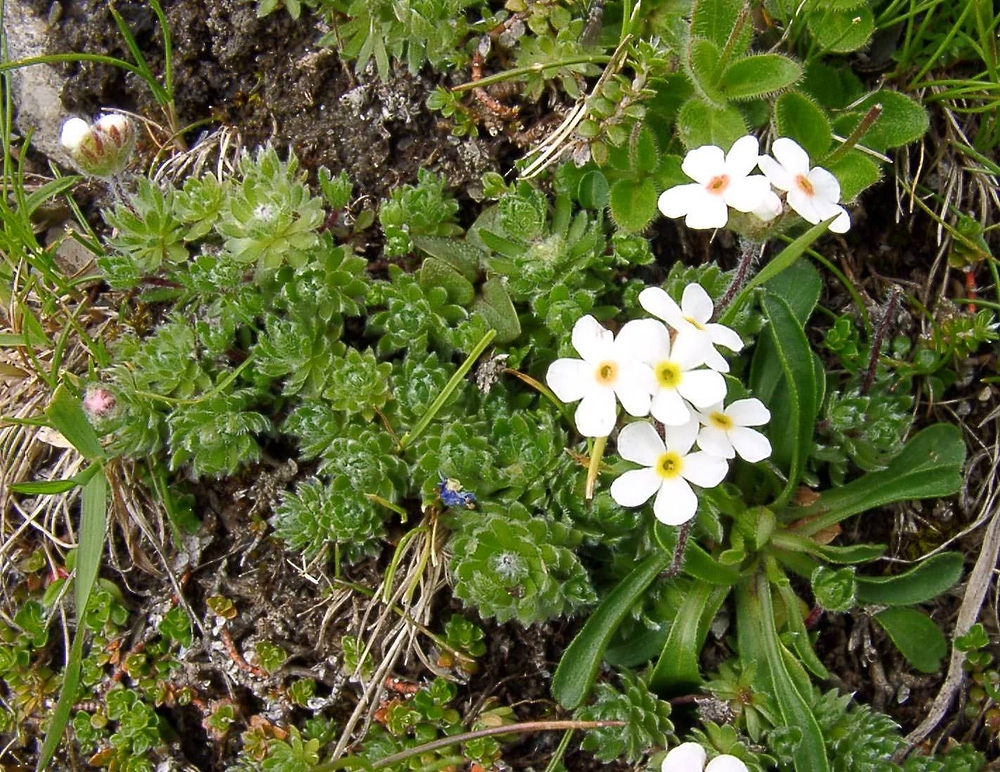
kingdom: Plantae
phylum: Tracheophyta
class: Magnoliopsida
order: Ericales
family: Primulaceae
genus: Androsace
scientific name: Androsace villosa
